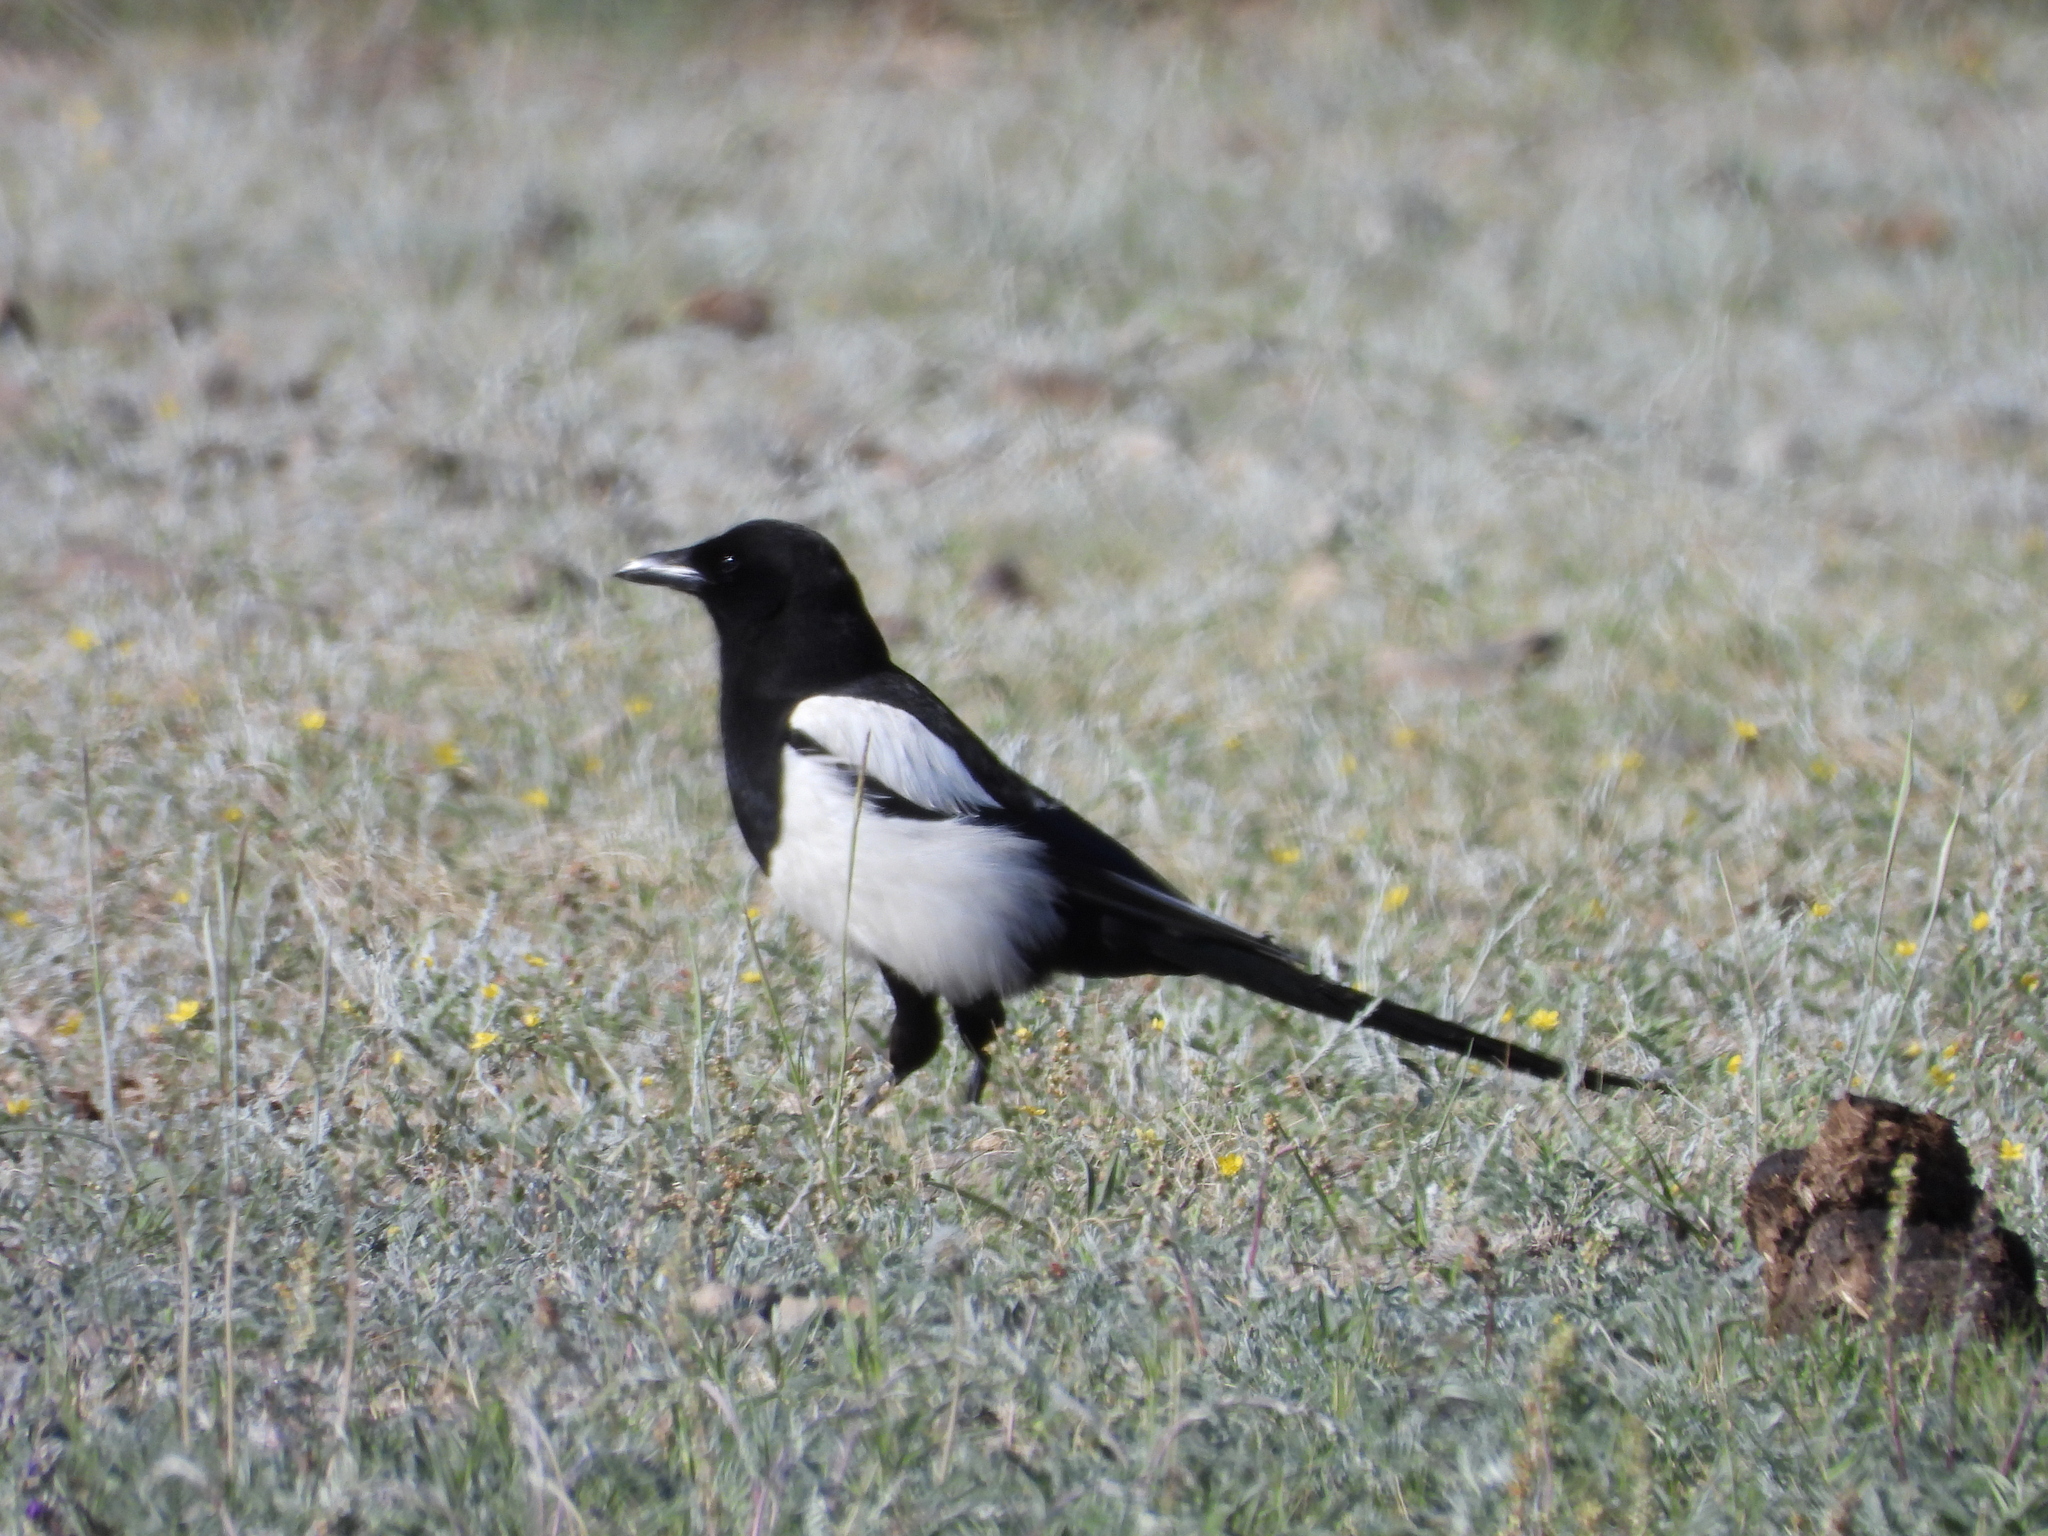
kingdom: Animalia
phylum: Chordata
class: Aves
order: Passeriformes
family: Corvidae
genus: Pica
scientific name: Pica pica
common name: Eurasian magpie
